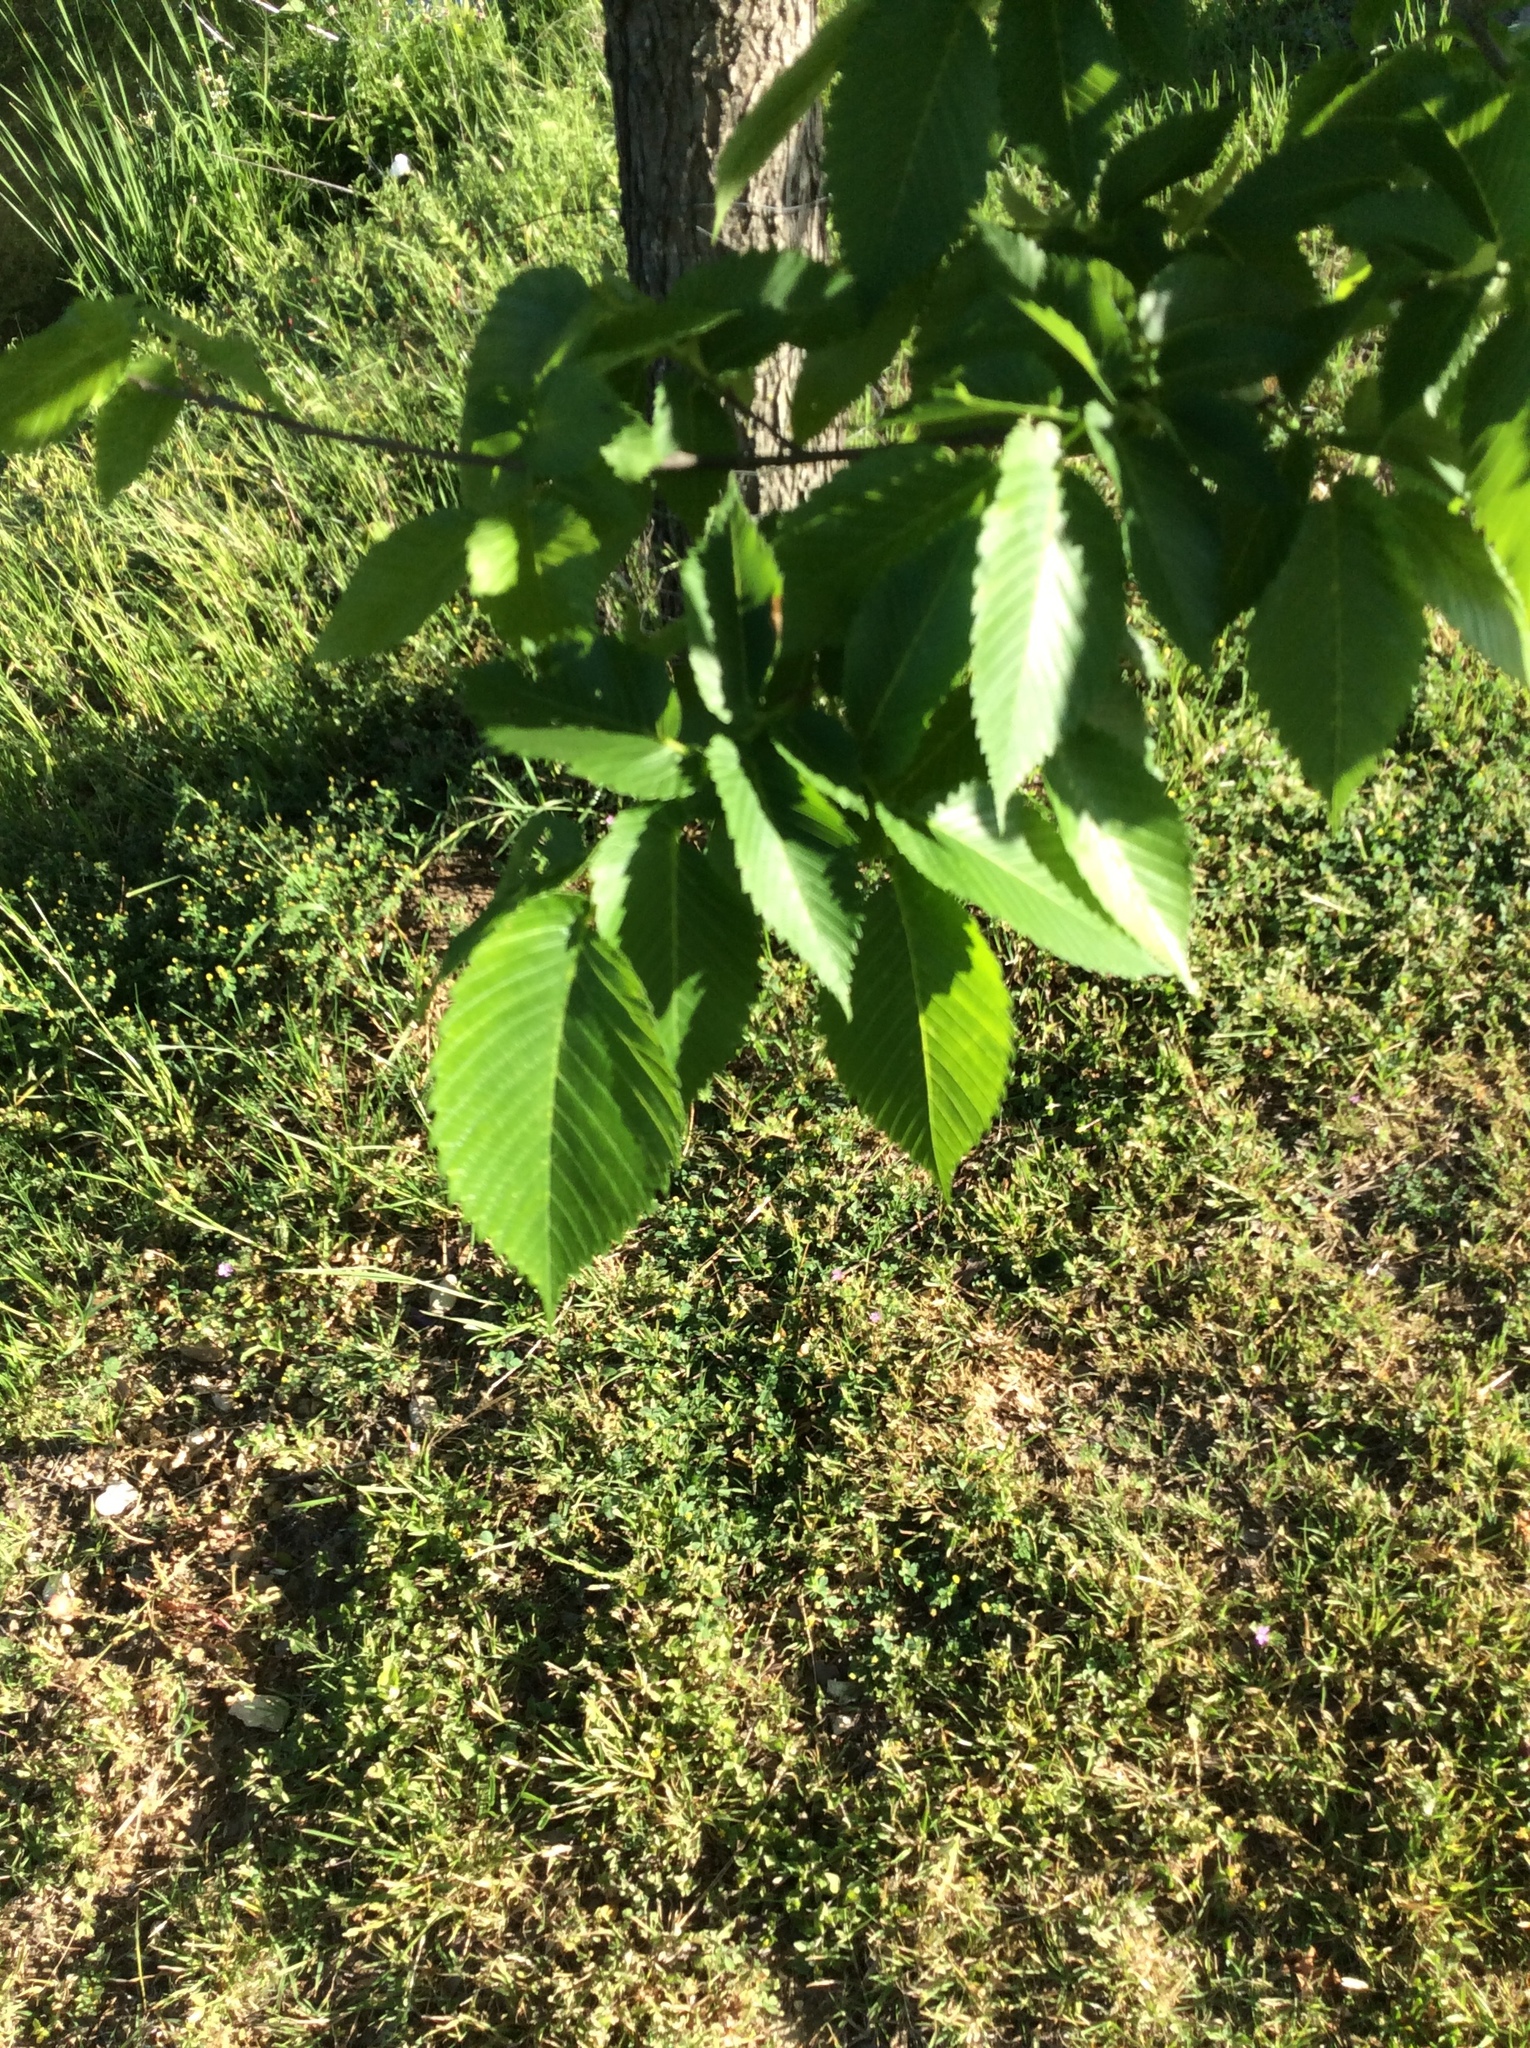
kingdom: Plantae
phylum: Tracheophyta
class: Magnoliopsida
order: Rosales
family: Ulmaceae
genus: Ulmus
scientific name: Ulmus americana
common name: American elm
